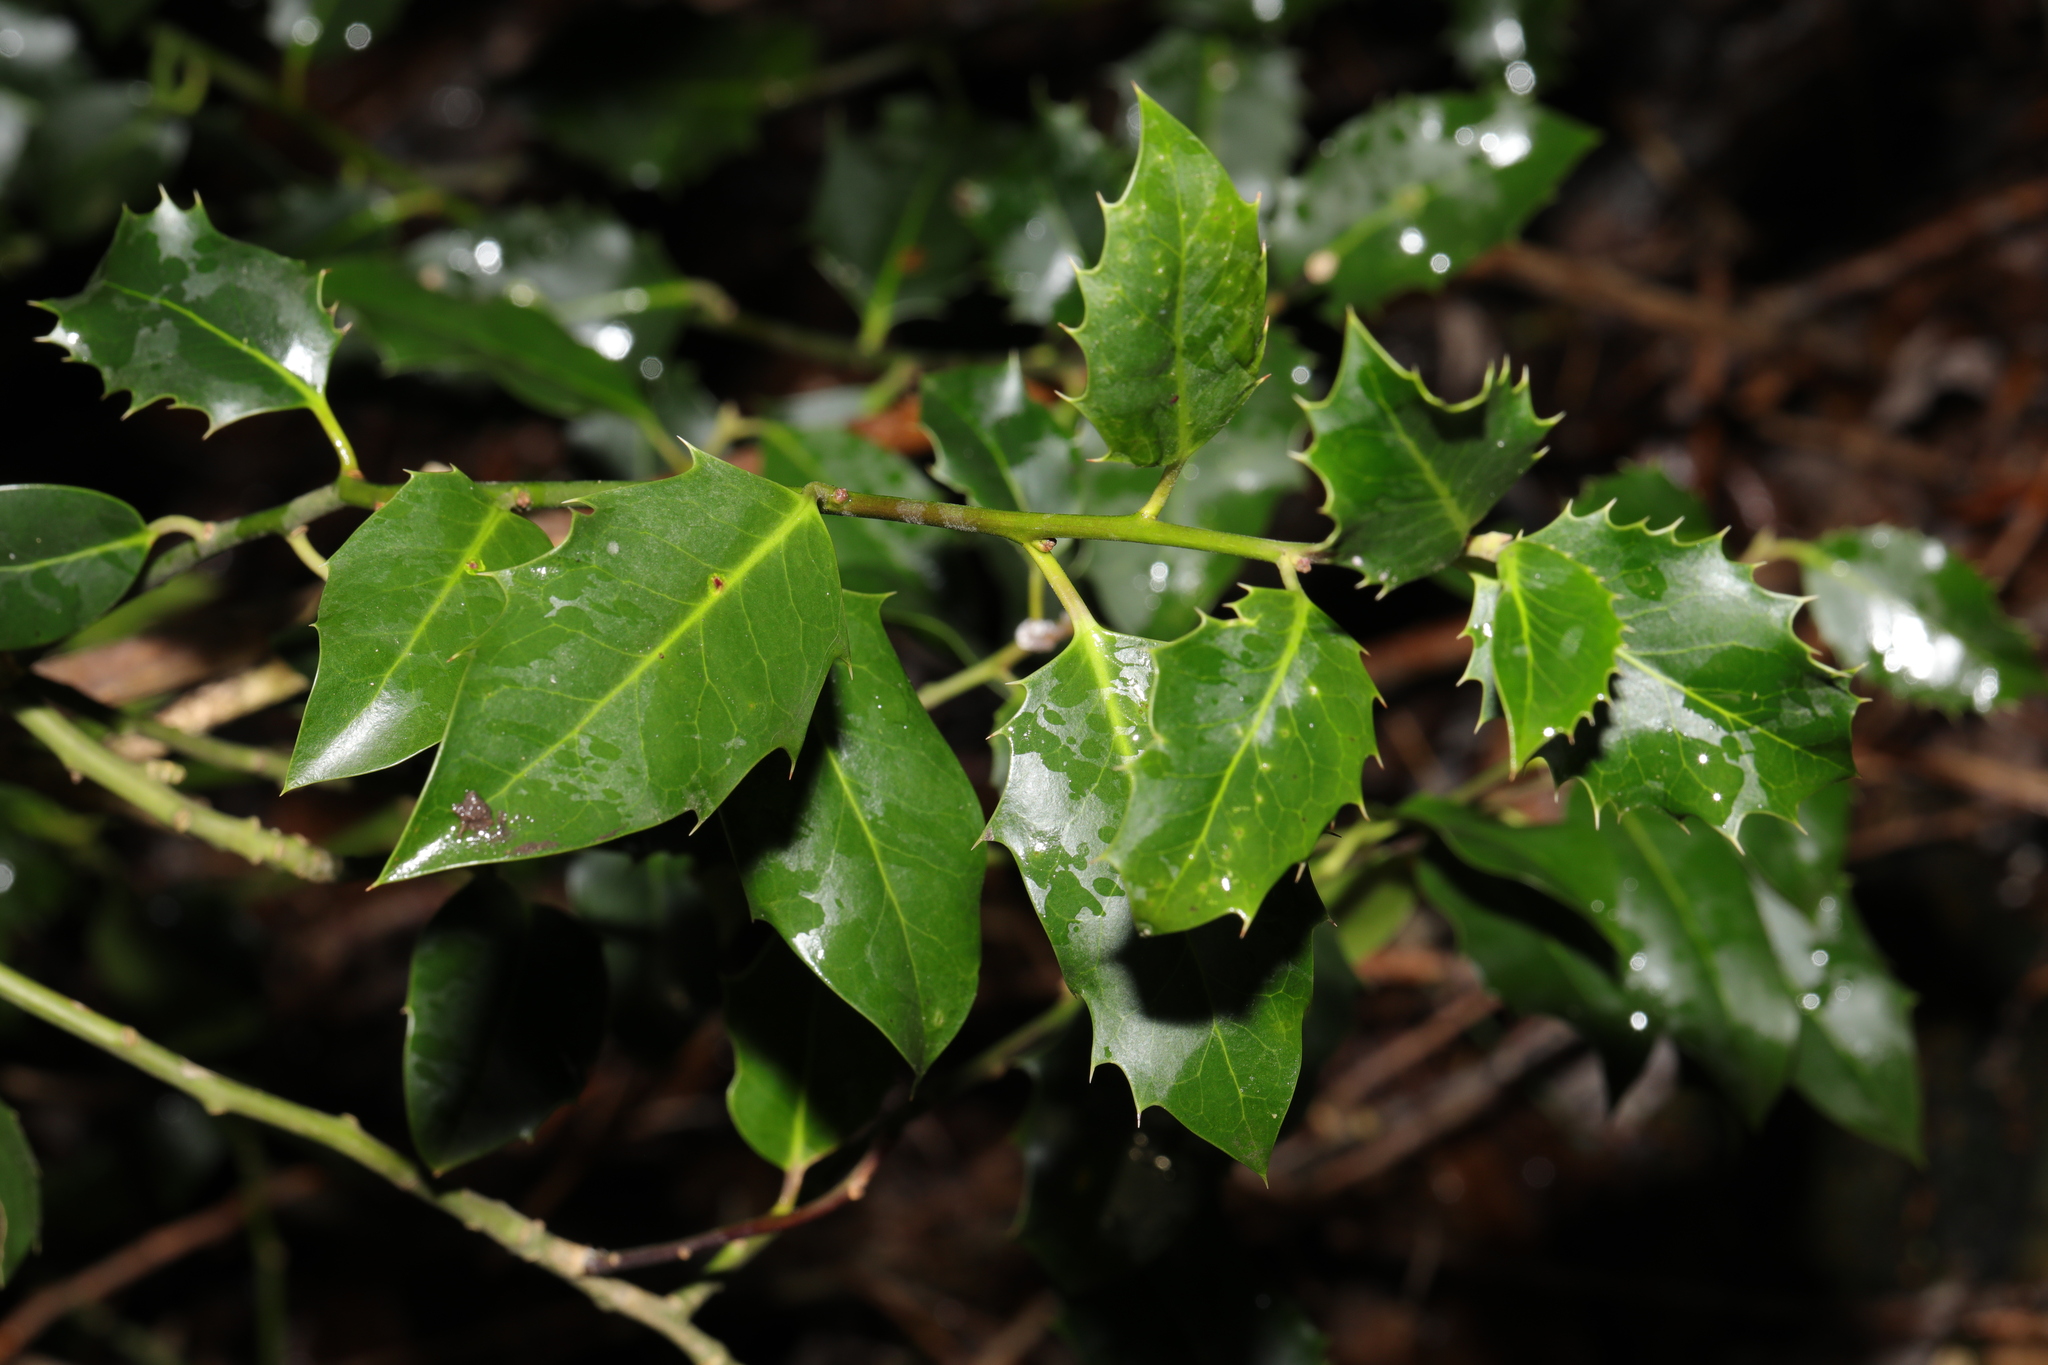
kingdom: Plantae
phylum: Tracheophyta
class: Magnoliopsida
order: Aquifoliales
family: Aquifoliaceae
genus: Ilex
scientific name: Ilex aquifolium
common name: English holly
